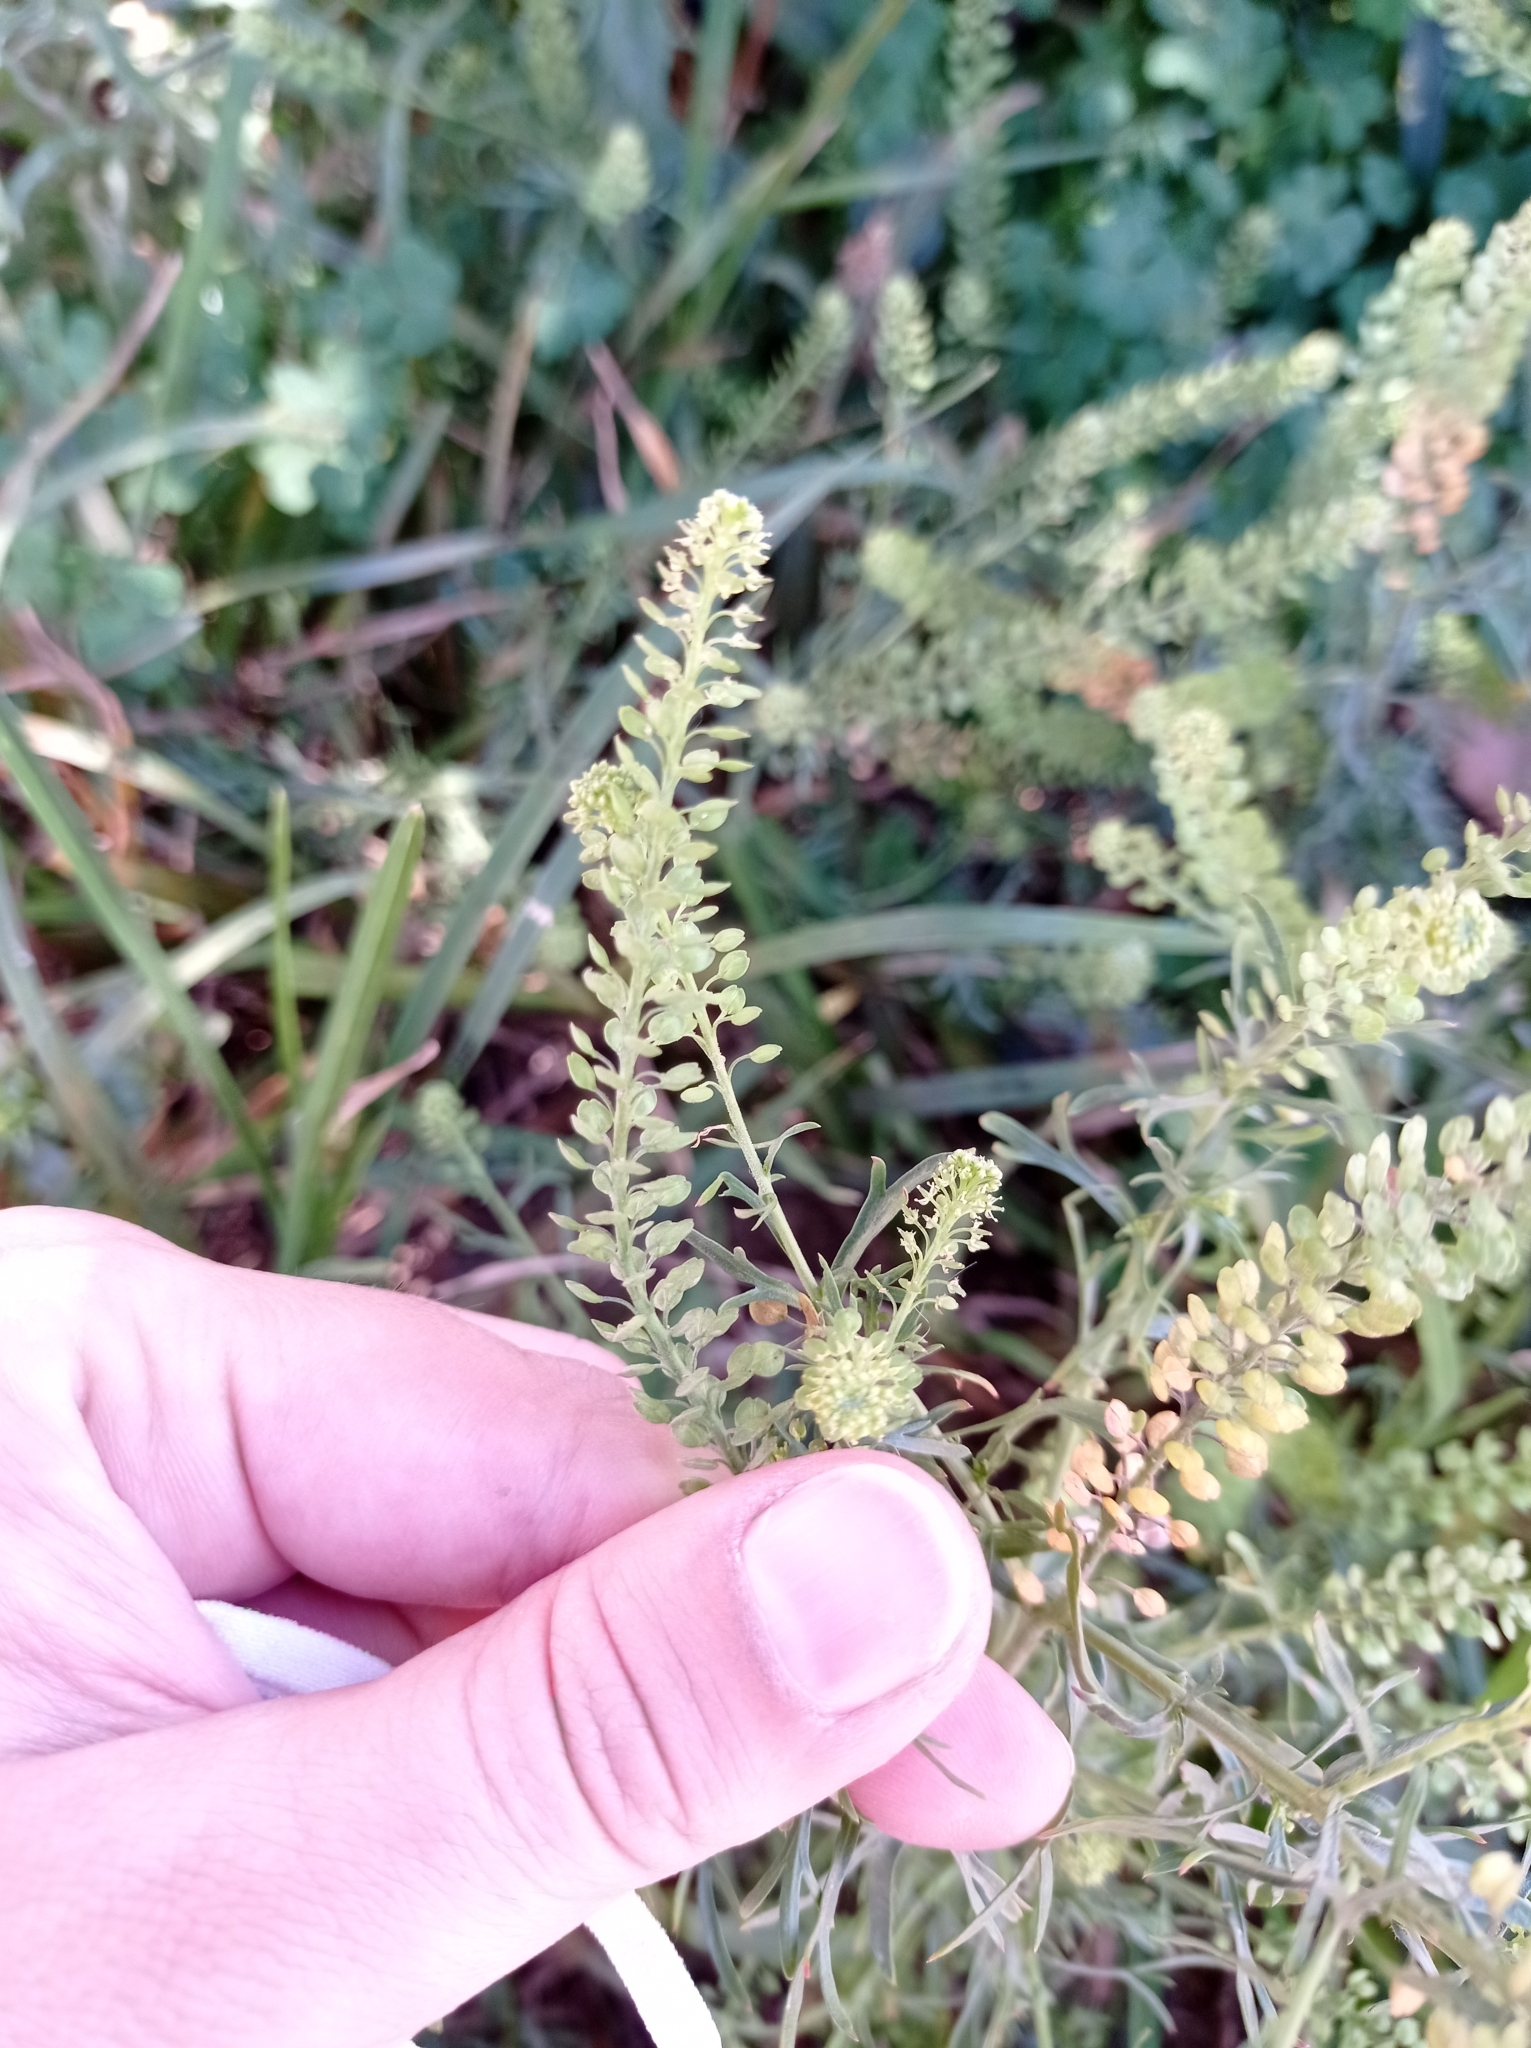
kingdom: Plantae
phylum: Tracheophyta
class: Magnoliopsida
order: Brassicales
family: Brassicaceae
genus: Lepidium
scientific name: Lepidium bonariense
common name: Argentine pepperwort
